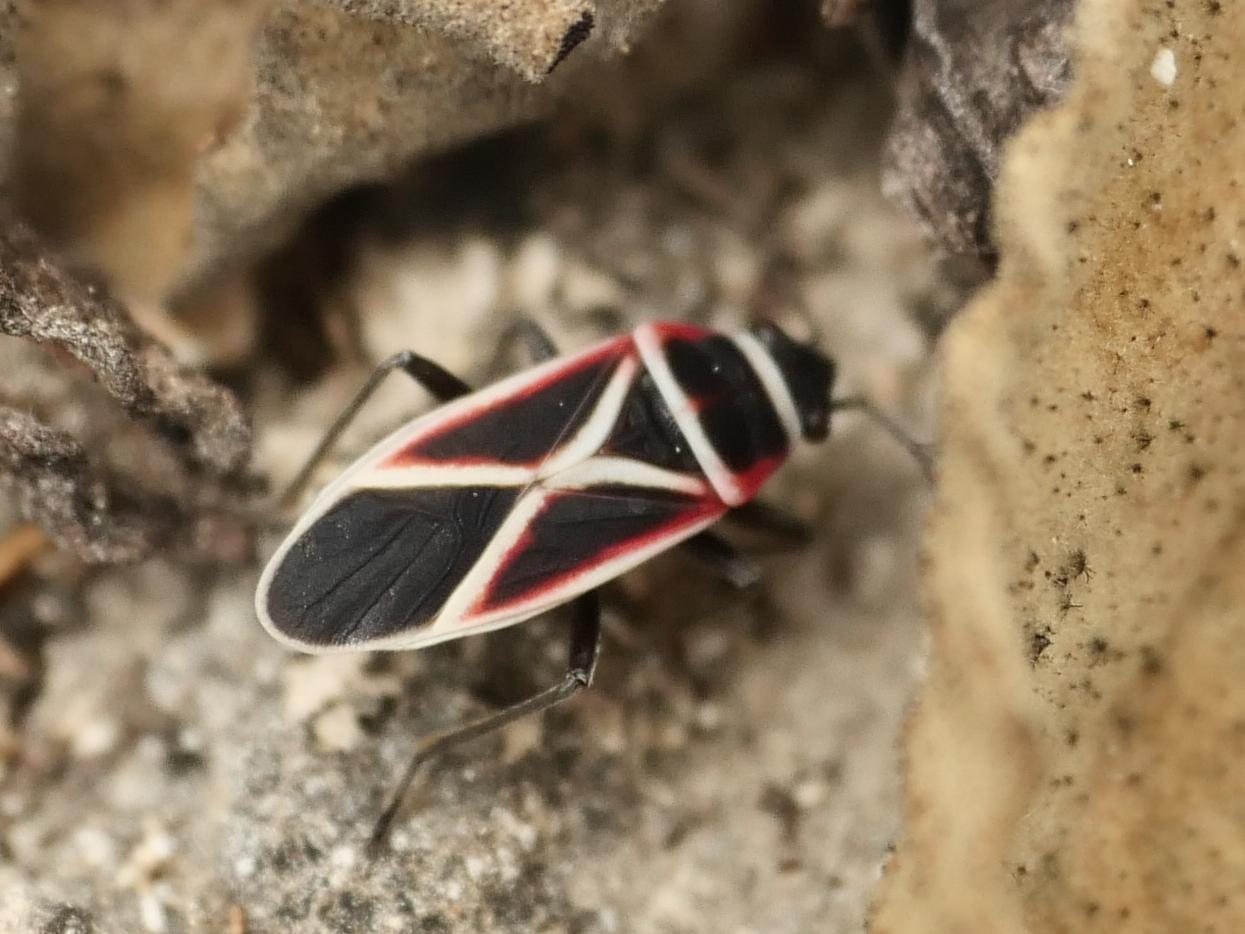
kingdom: Animalia
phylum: Arthropoda
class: Insecta
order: Hemiptera
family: Lygaeidae
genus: Ochrostomus
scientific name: Ochrostomus pulchellus
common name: Lygaeid bug
